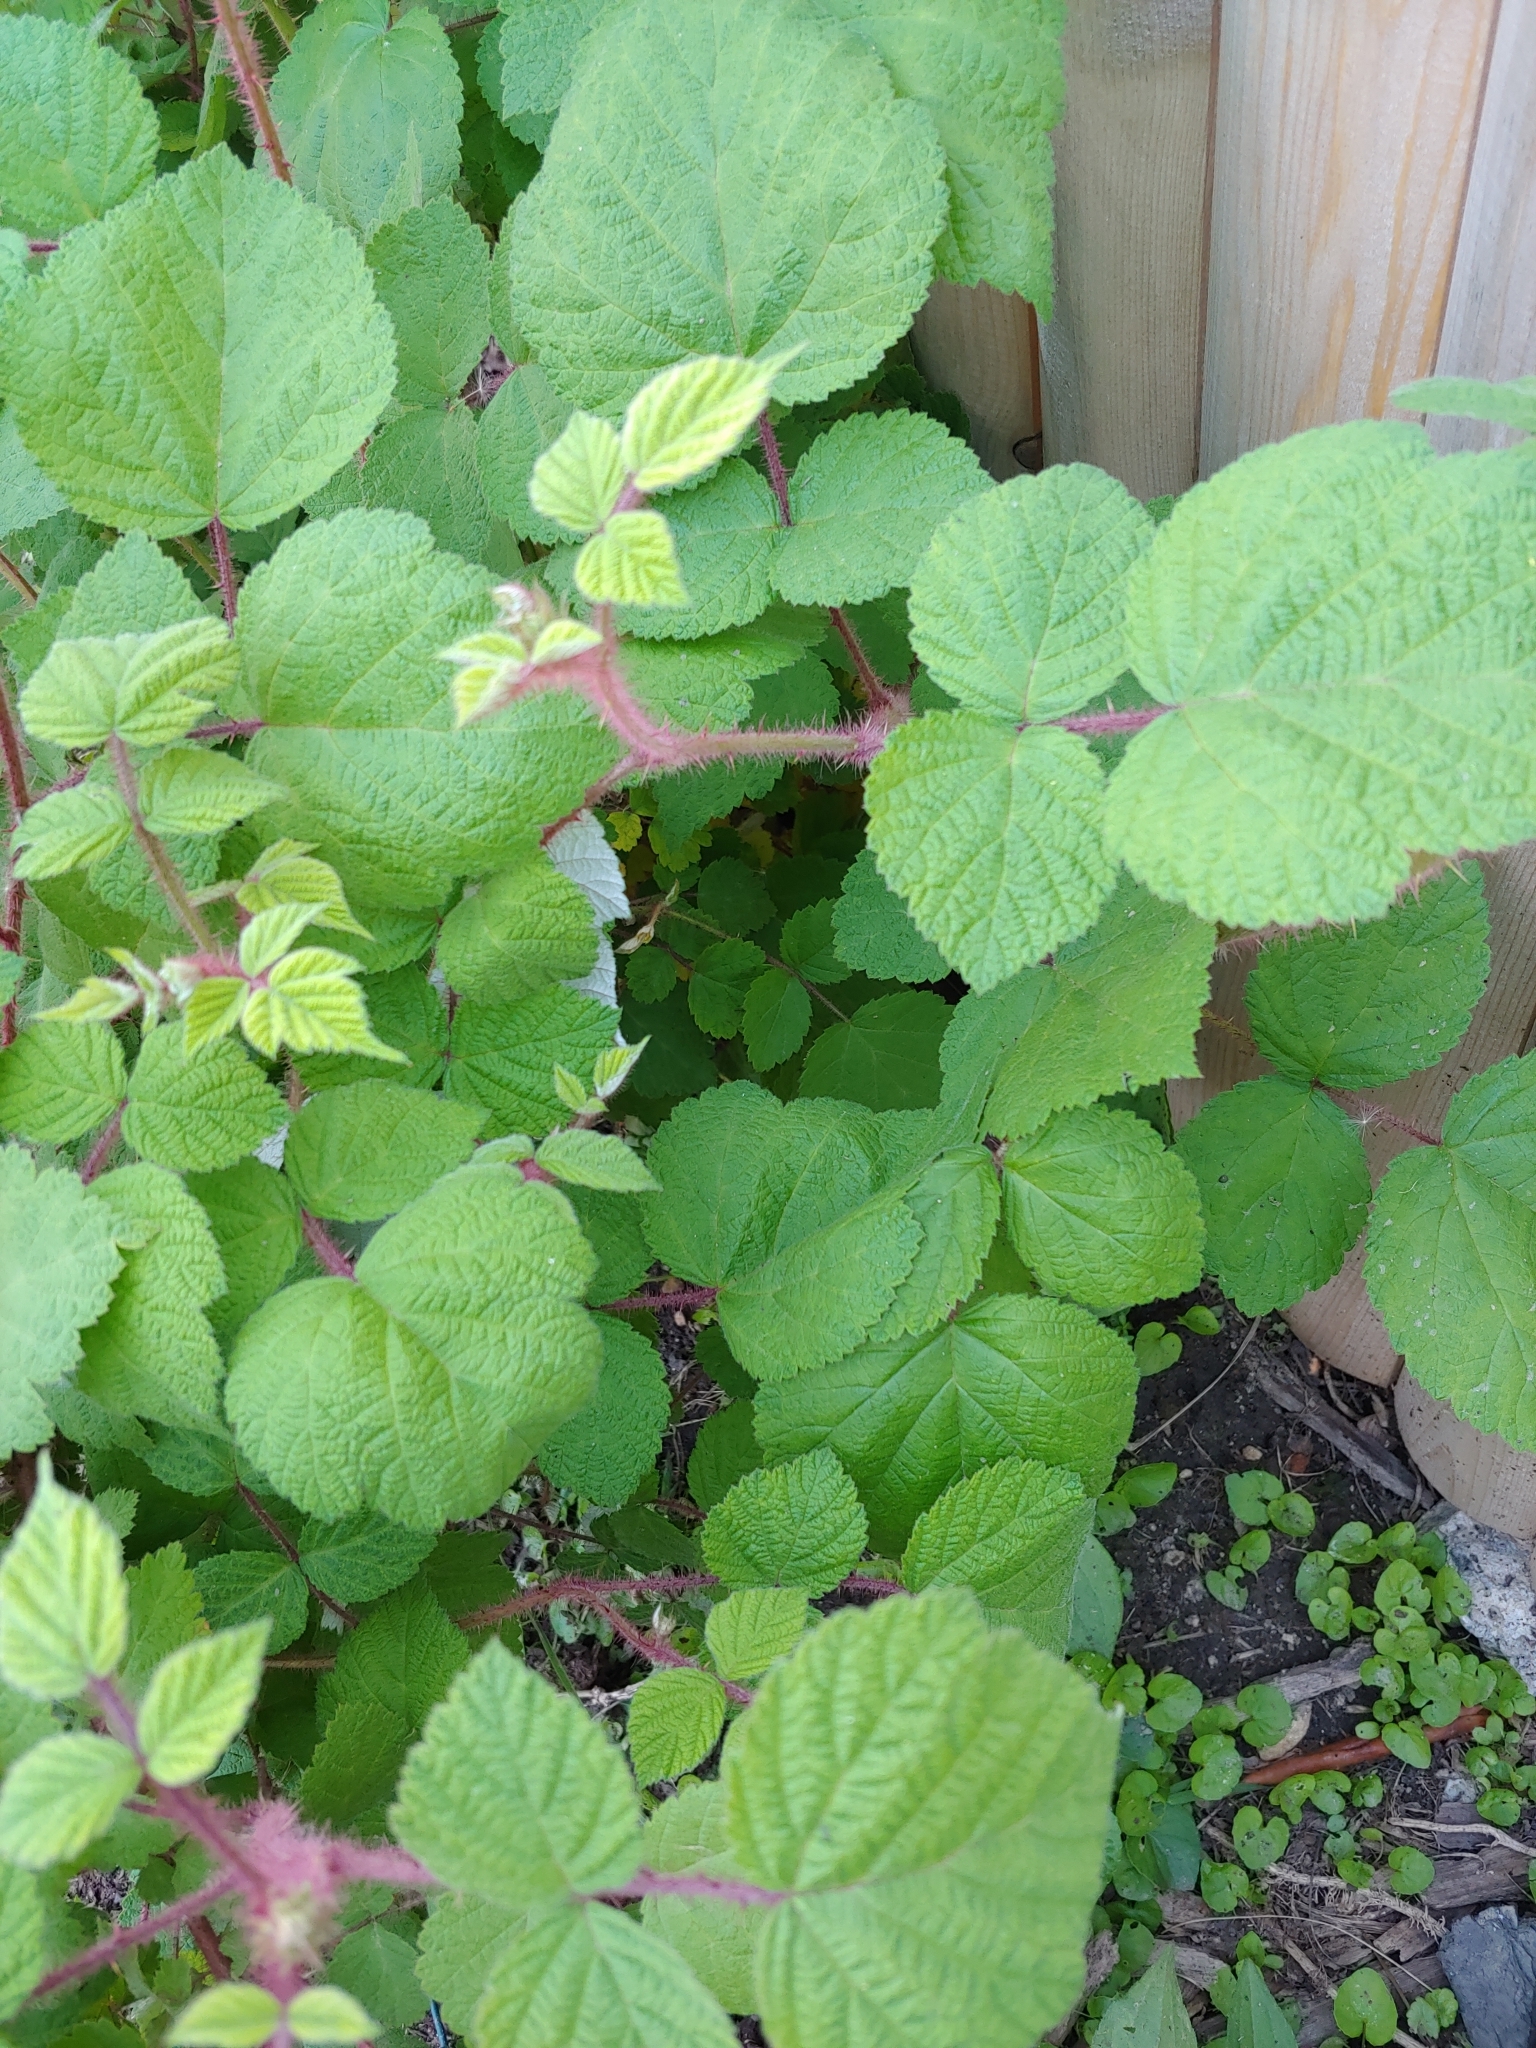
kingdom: Plantae
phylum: Tracheophyta
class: Magnoliopsida
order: Rosales
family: Rosaceae
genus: Rubus
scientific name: Rubus phoenicolasius
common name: Japanese wineberry
